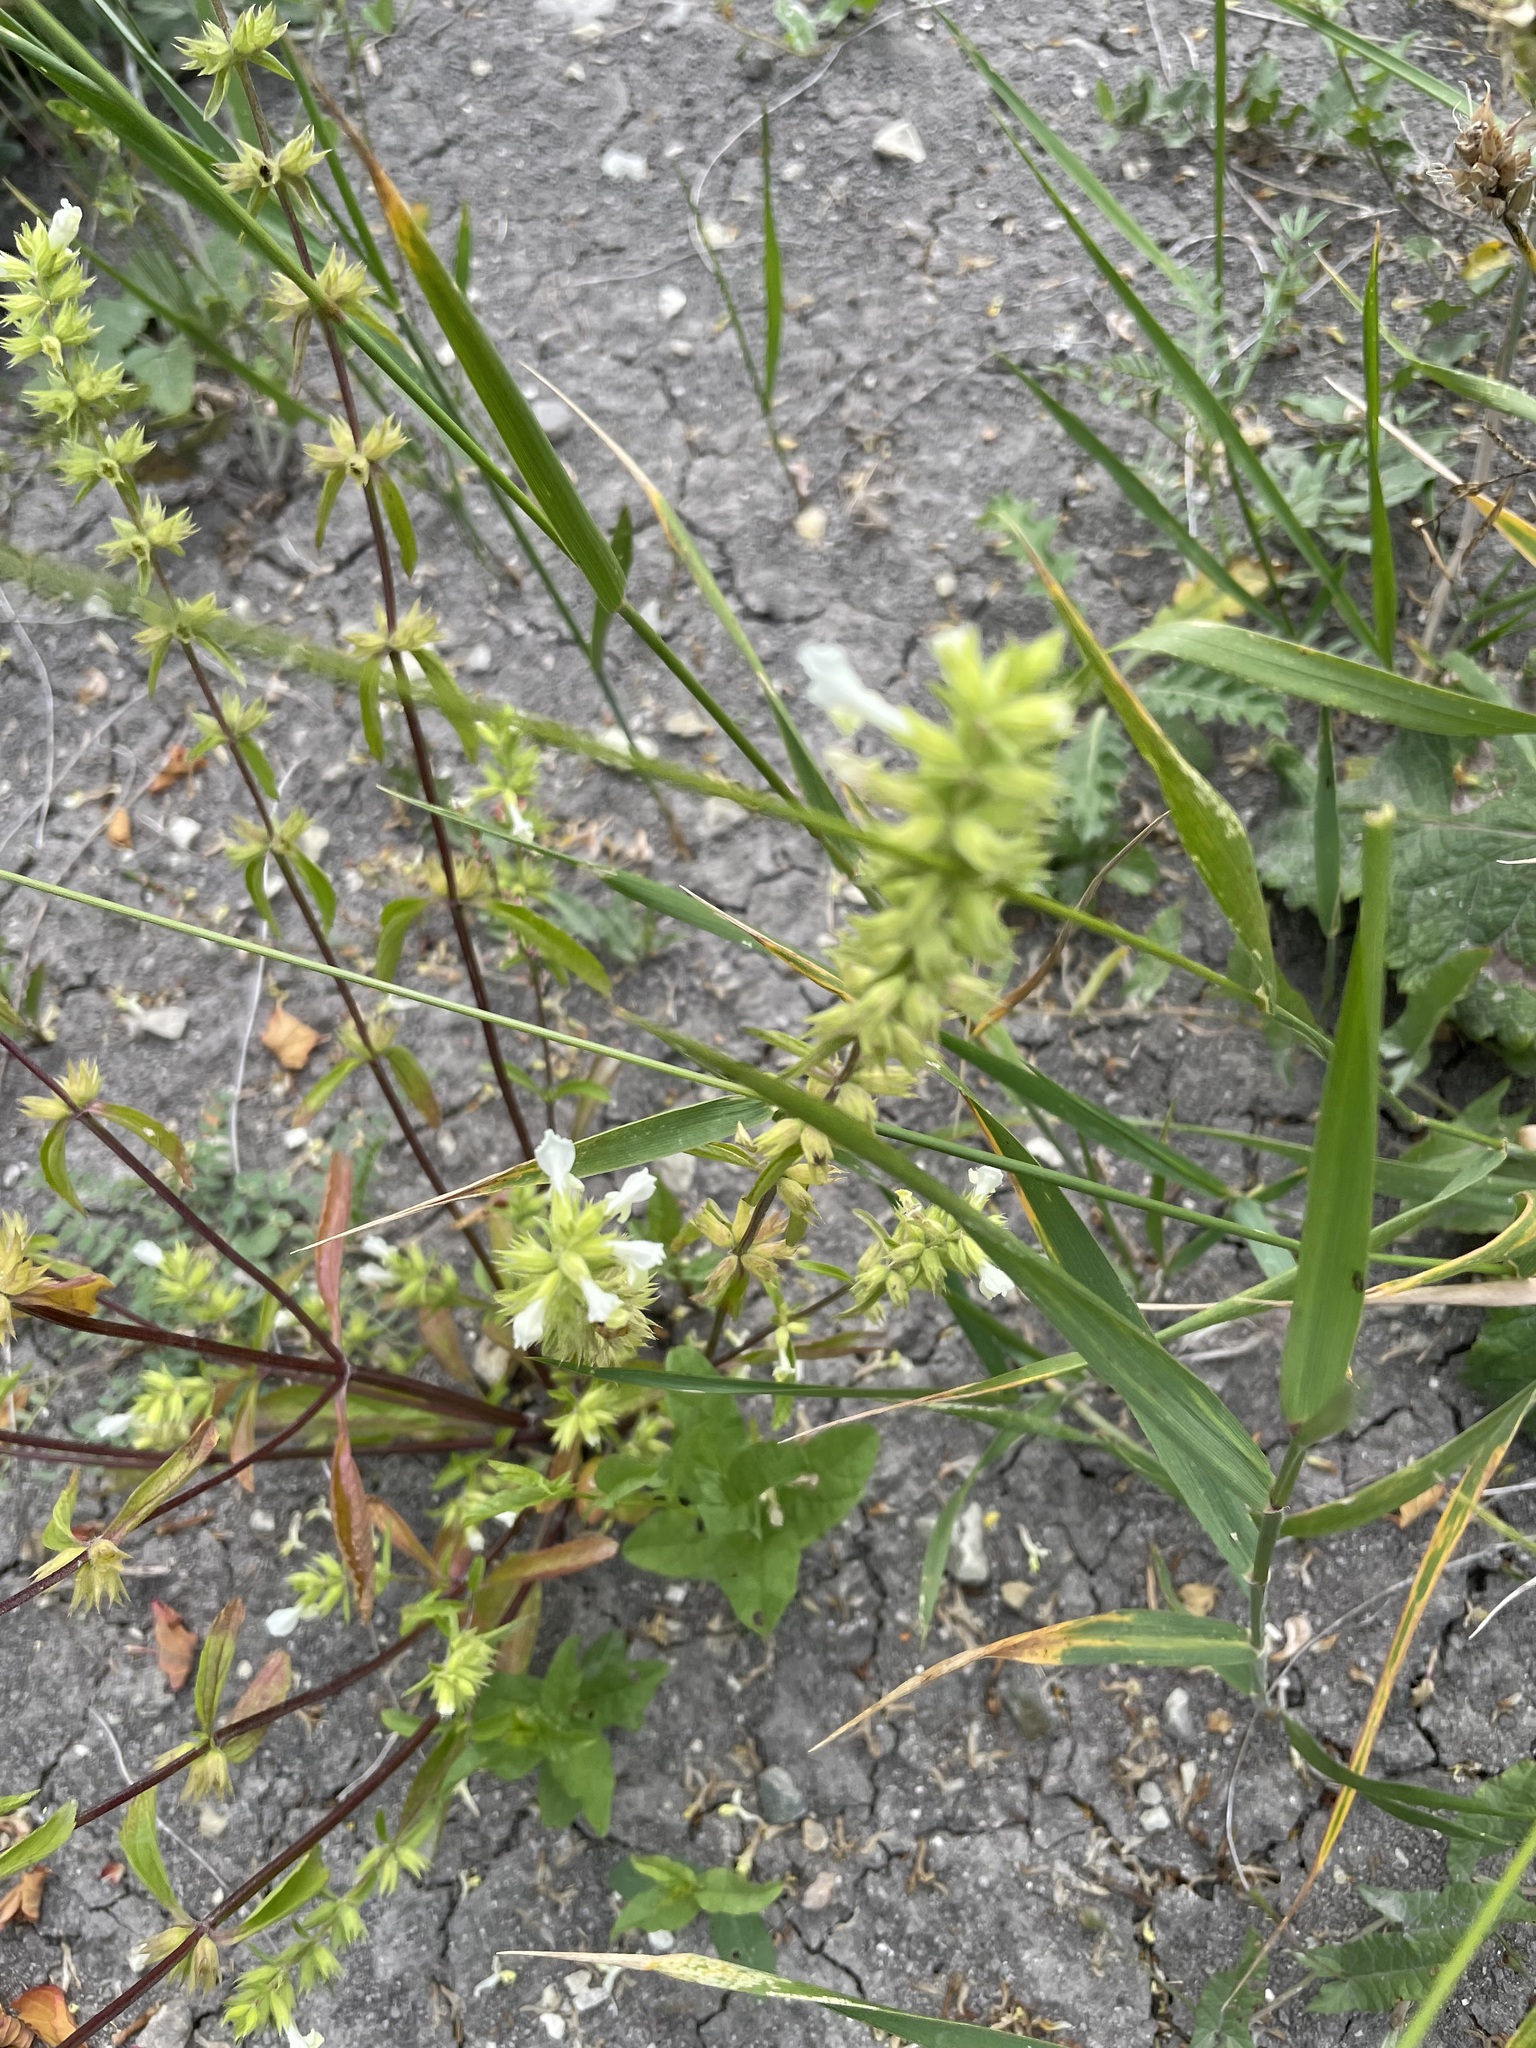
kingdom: Plantae
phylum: Tracheophyta
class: Magnoliopsida
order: Lamiales
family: Lamiaceae
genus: Stachys
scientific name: Stachys annua
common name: Annual yellow-woundwort
